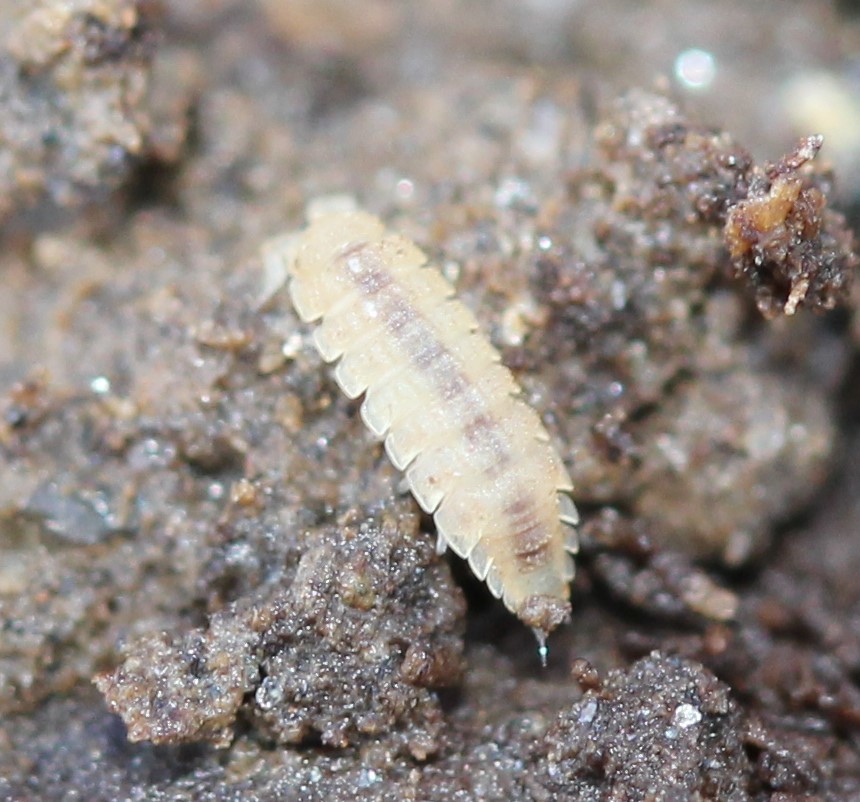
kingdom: Animalia
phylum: Arthropoda
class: Malacostraca
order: Isopoda
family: Trichoniscidae
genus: Haplophthalmus
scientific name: Haplophthalmus danicus
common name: Pillbug
